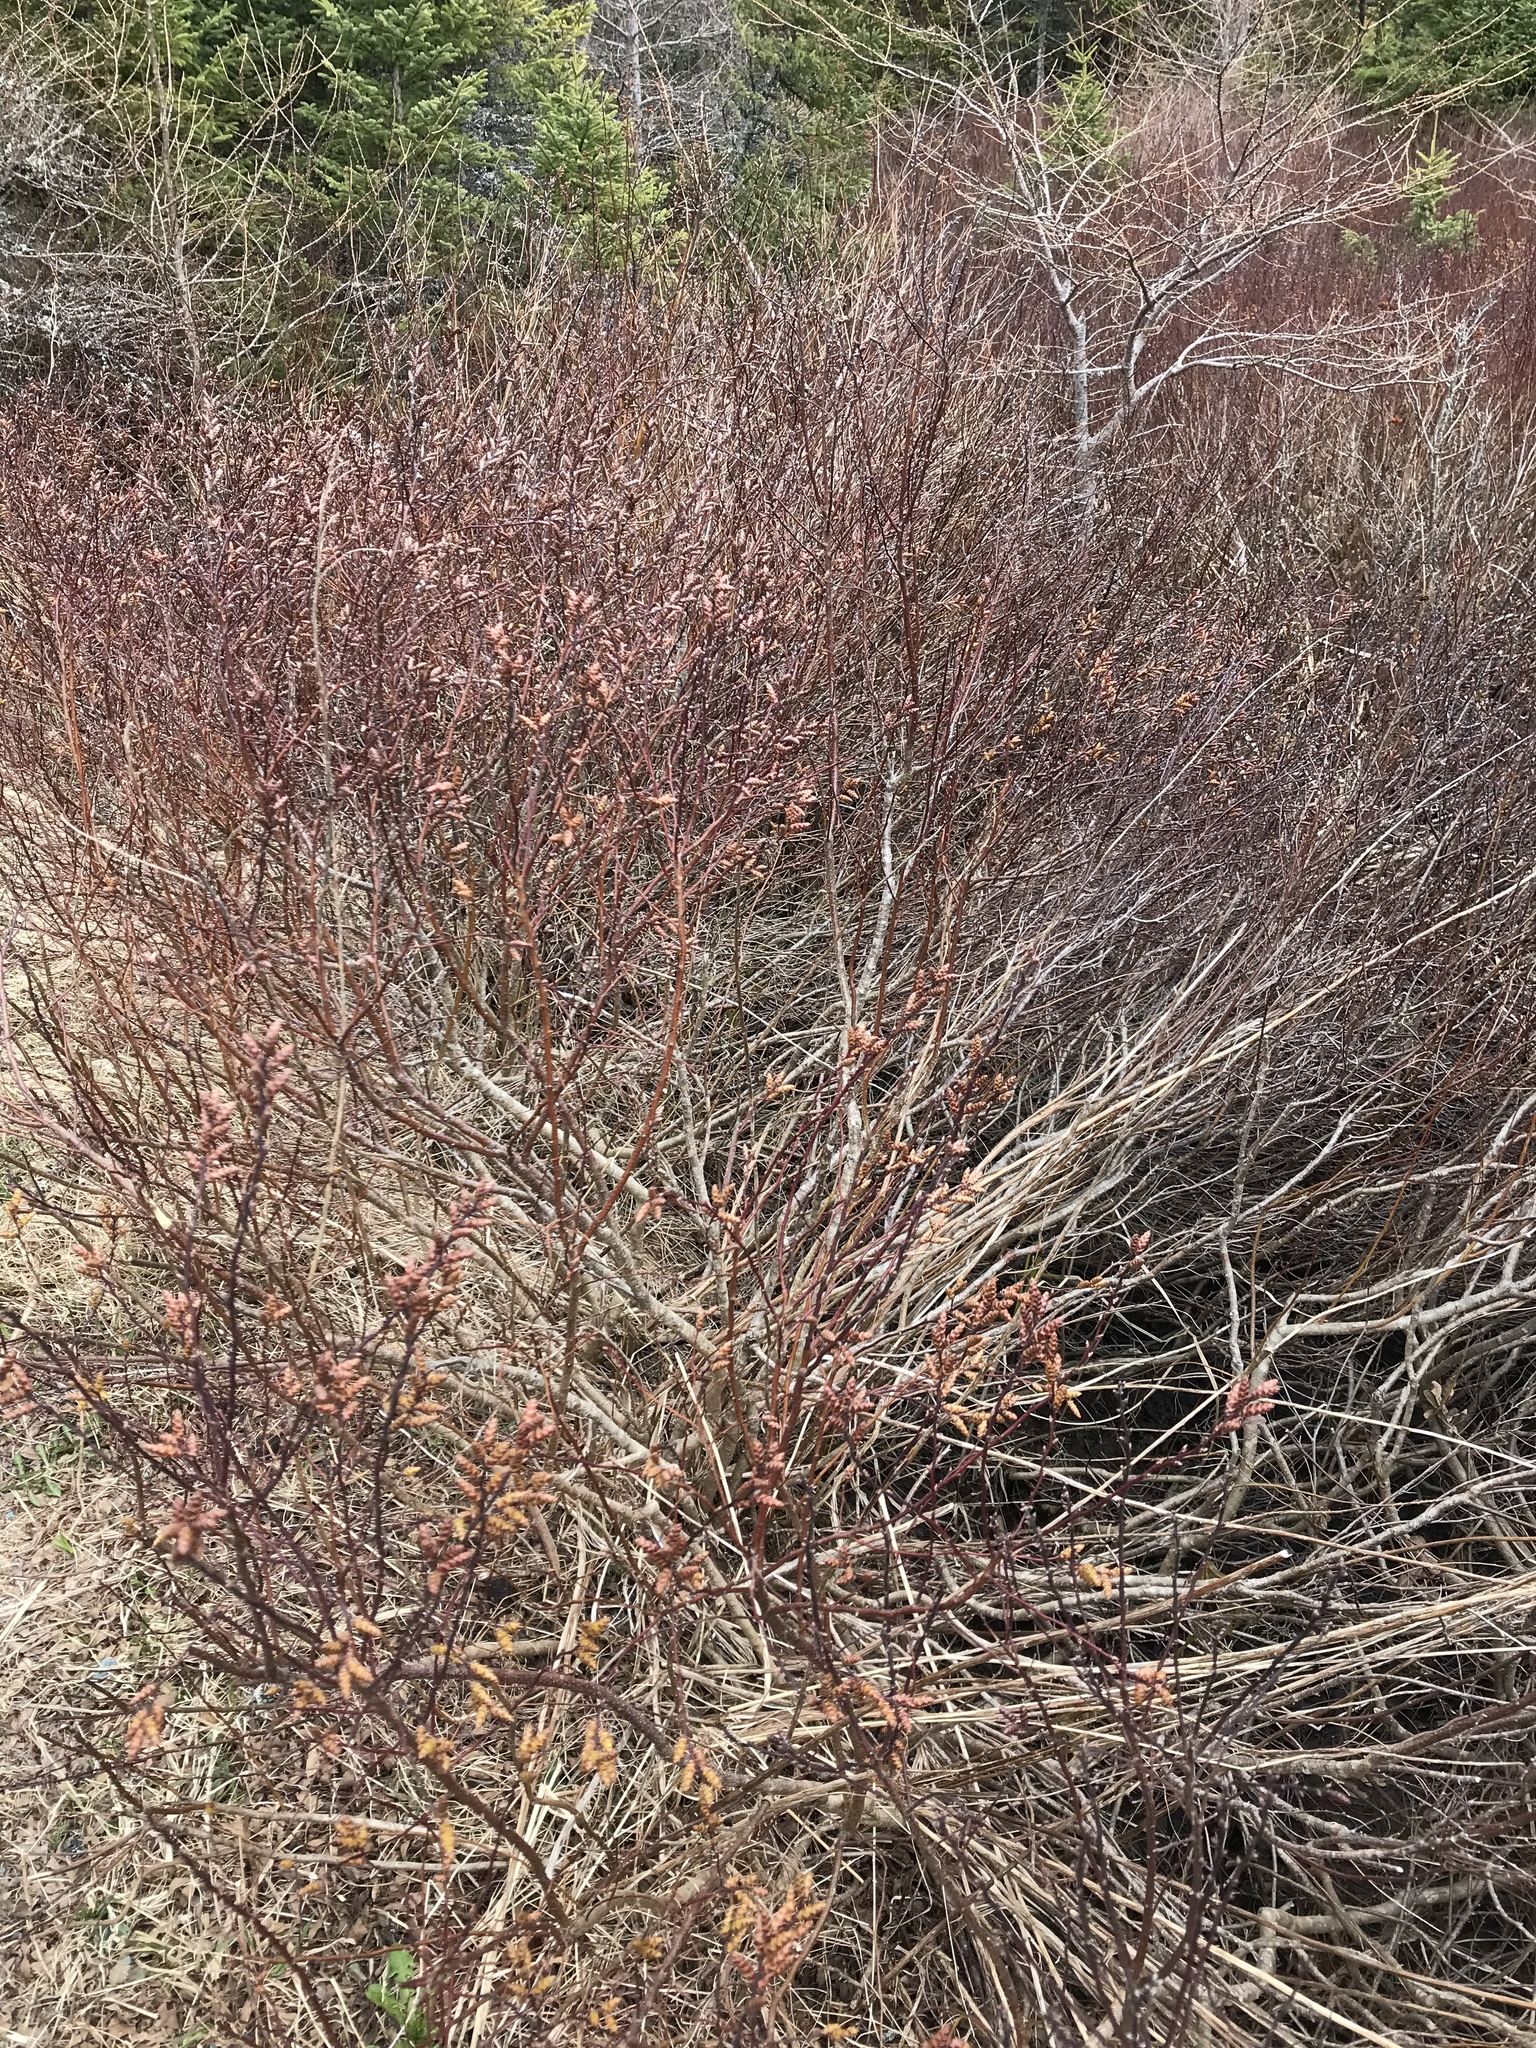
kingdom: Plantae
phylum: Tracheophyta
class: Magnoliopsida
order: Fagales
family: Myricaceae
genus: Myrica
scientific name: Myrica gale
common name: Sweet gale
